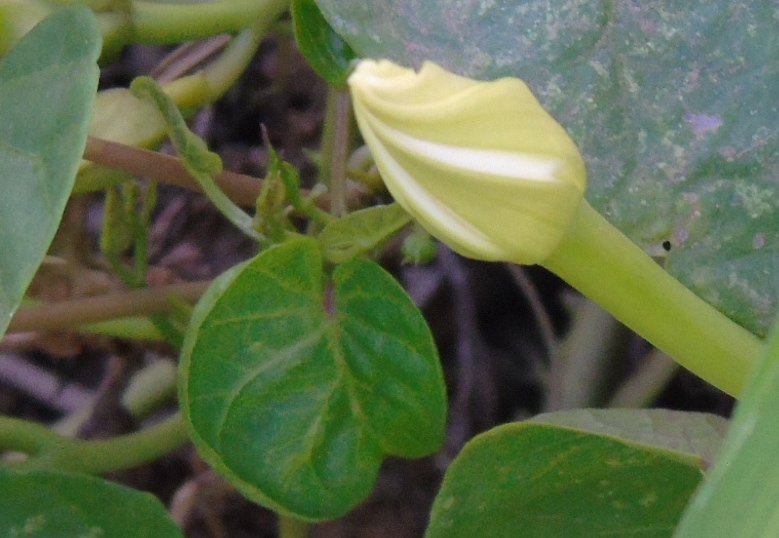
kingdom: Plantae
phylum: Tracheophyta
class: Magnoliopsida
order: Solanales
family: Convolvulaceae
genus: Ipomoea
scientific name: Ipomoea alba
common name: Moonflower
